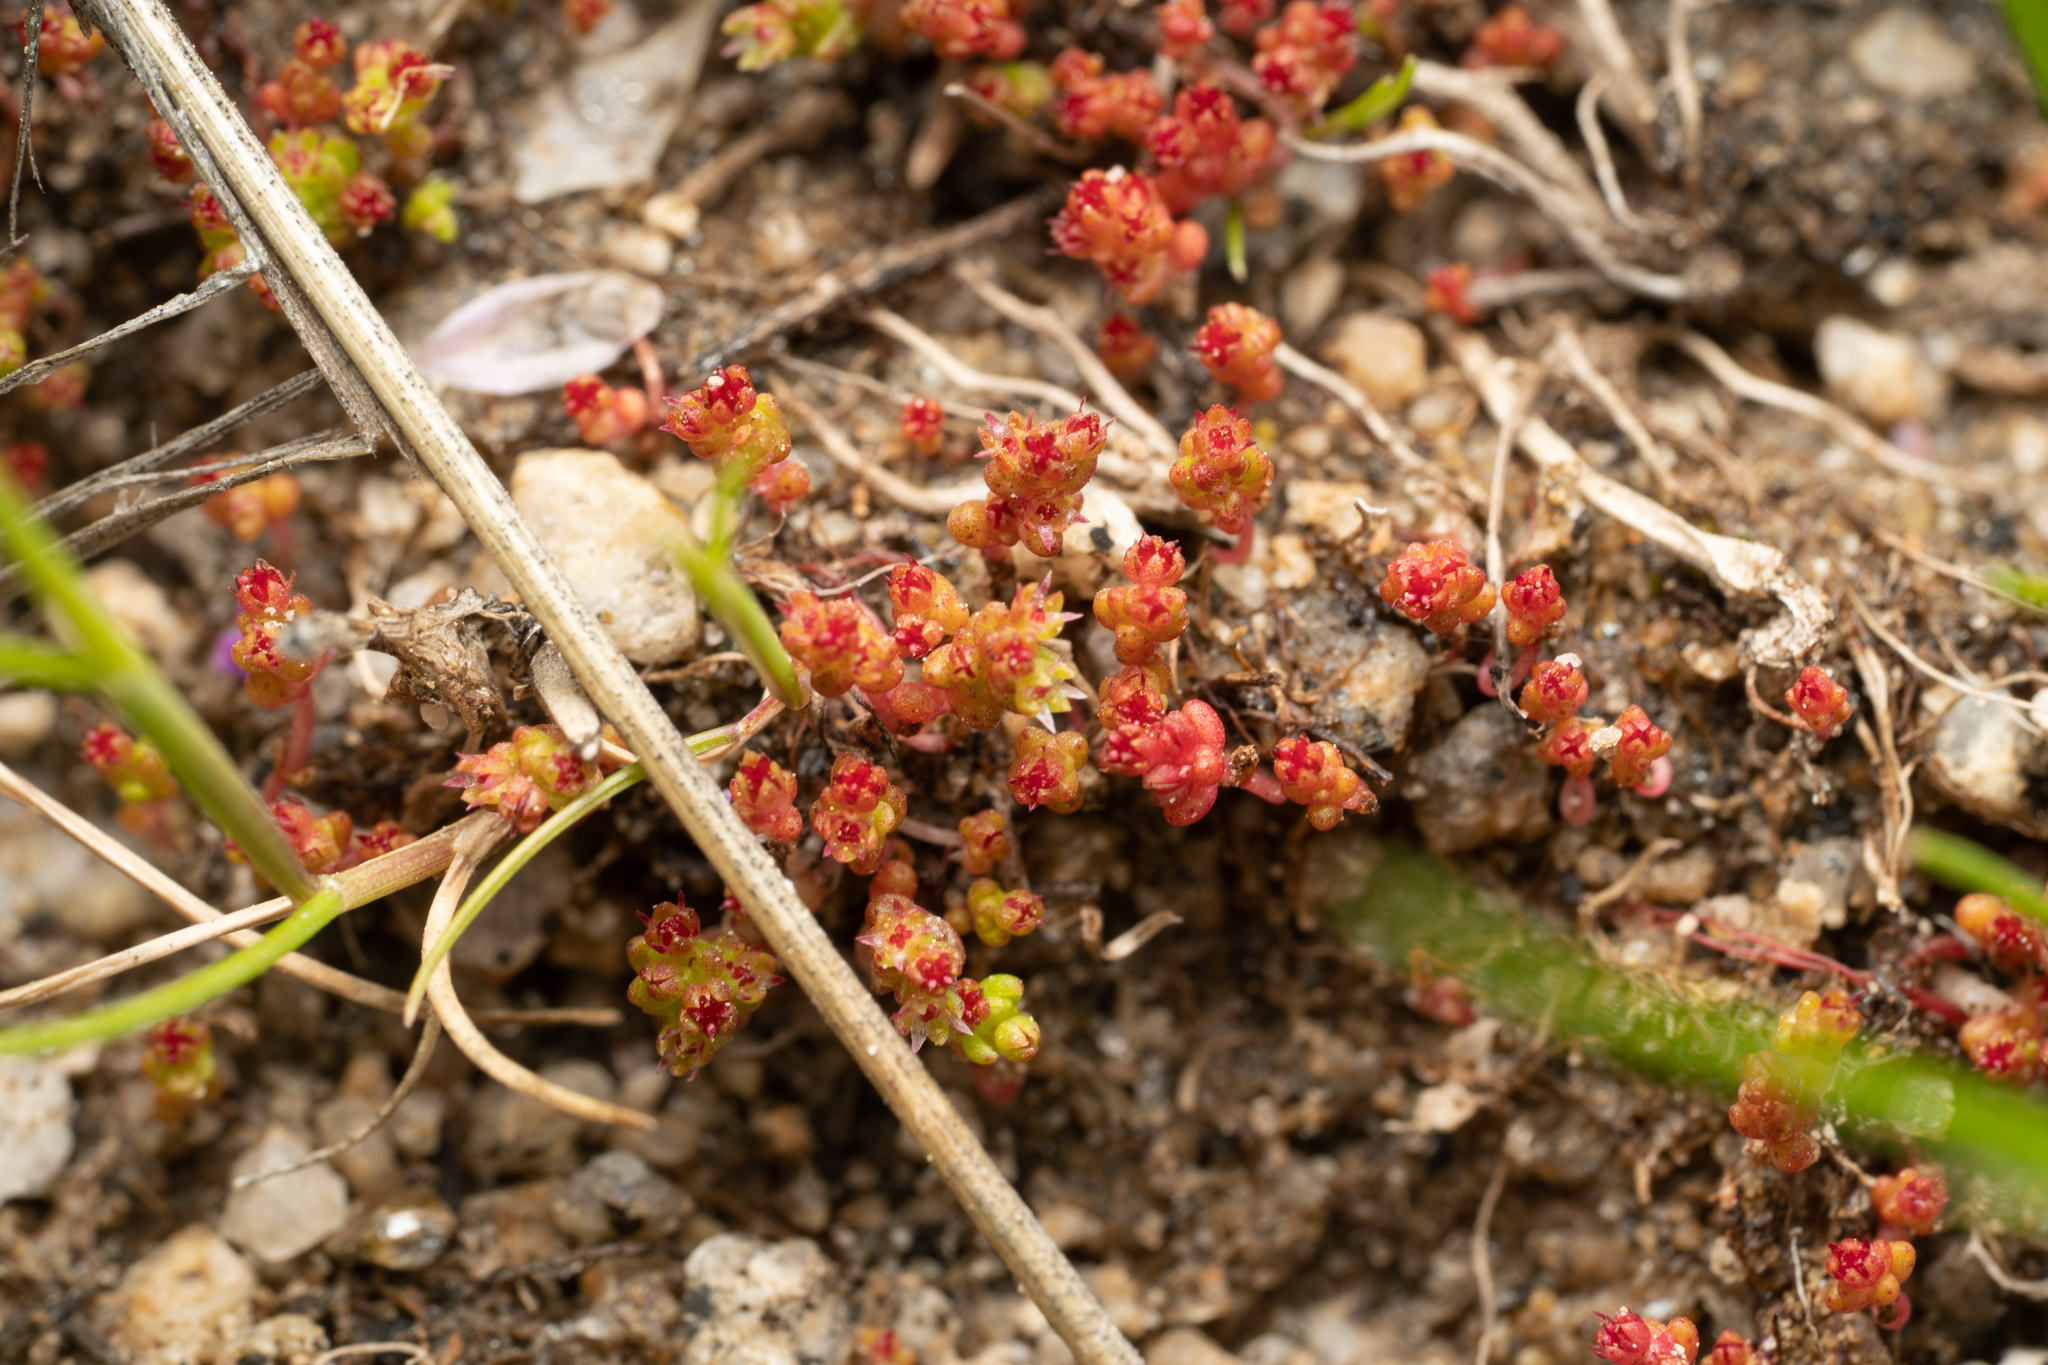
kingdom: Plantae
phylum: Tracheophyta
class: Magnoliopsida
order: Saxifragales
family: Crassulaceae
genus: Crassula
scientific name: Crassula connata
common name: Erect pygmyweed
